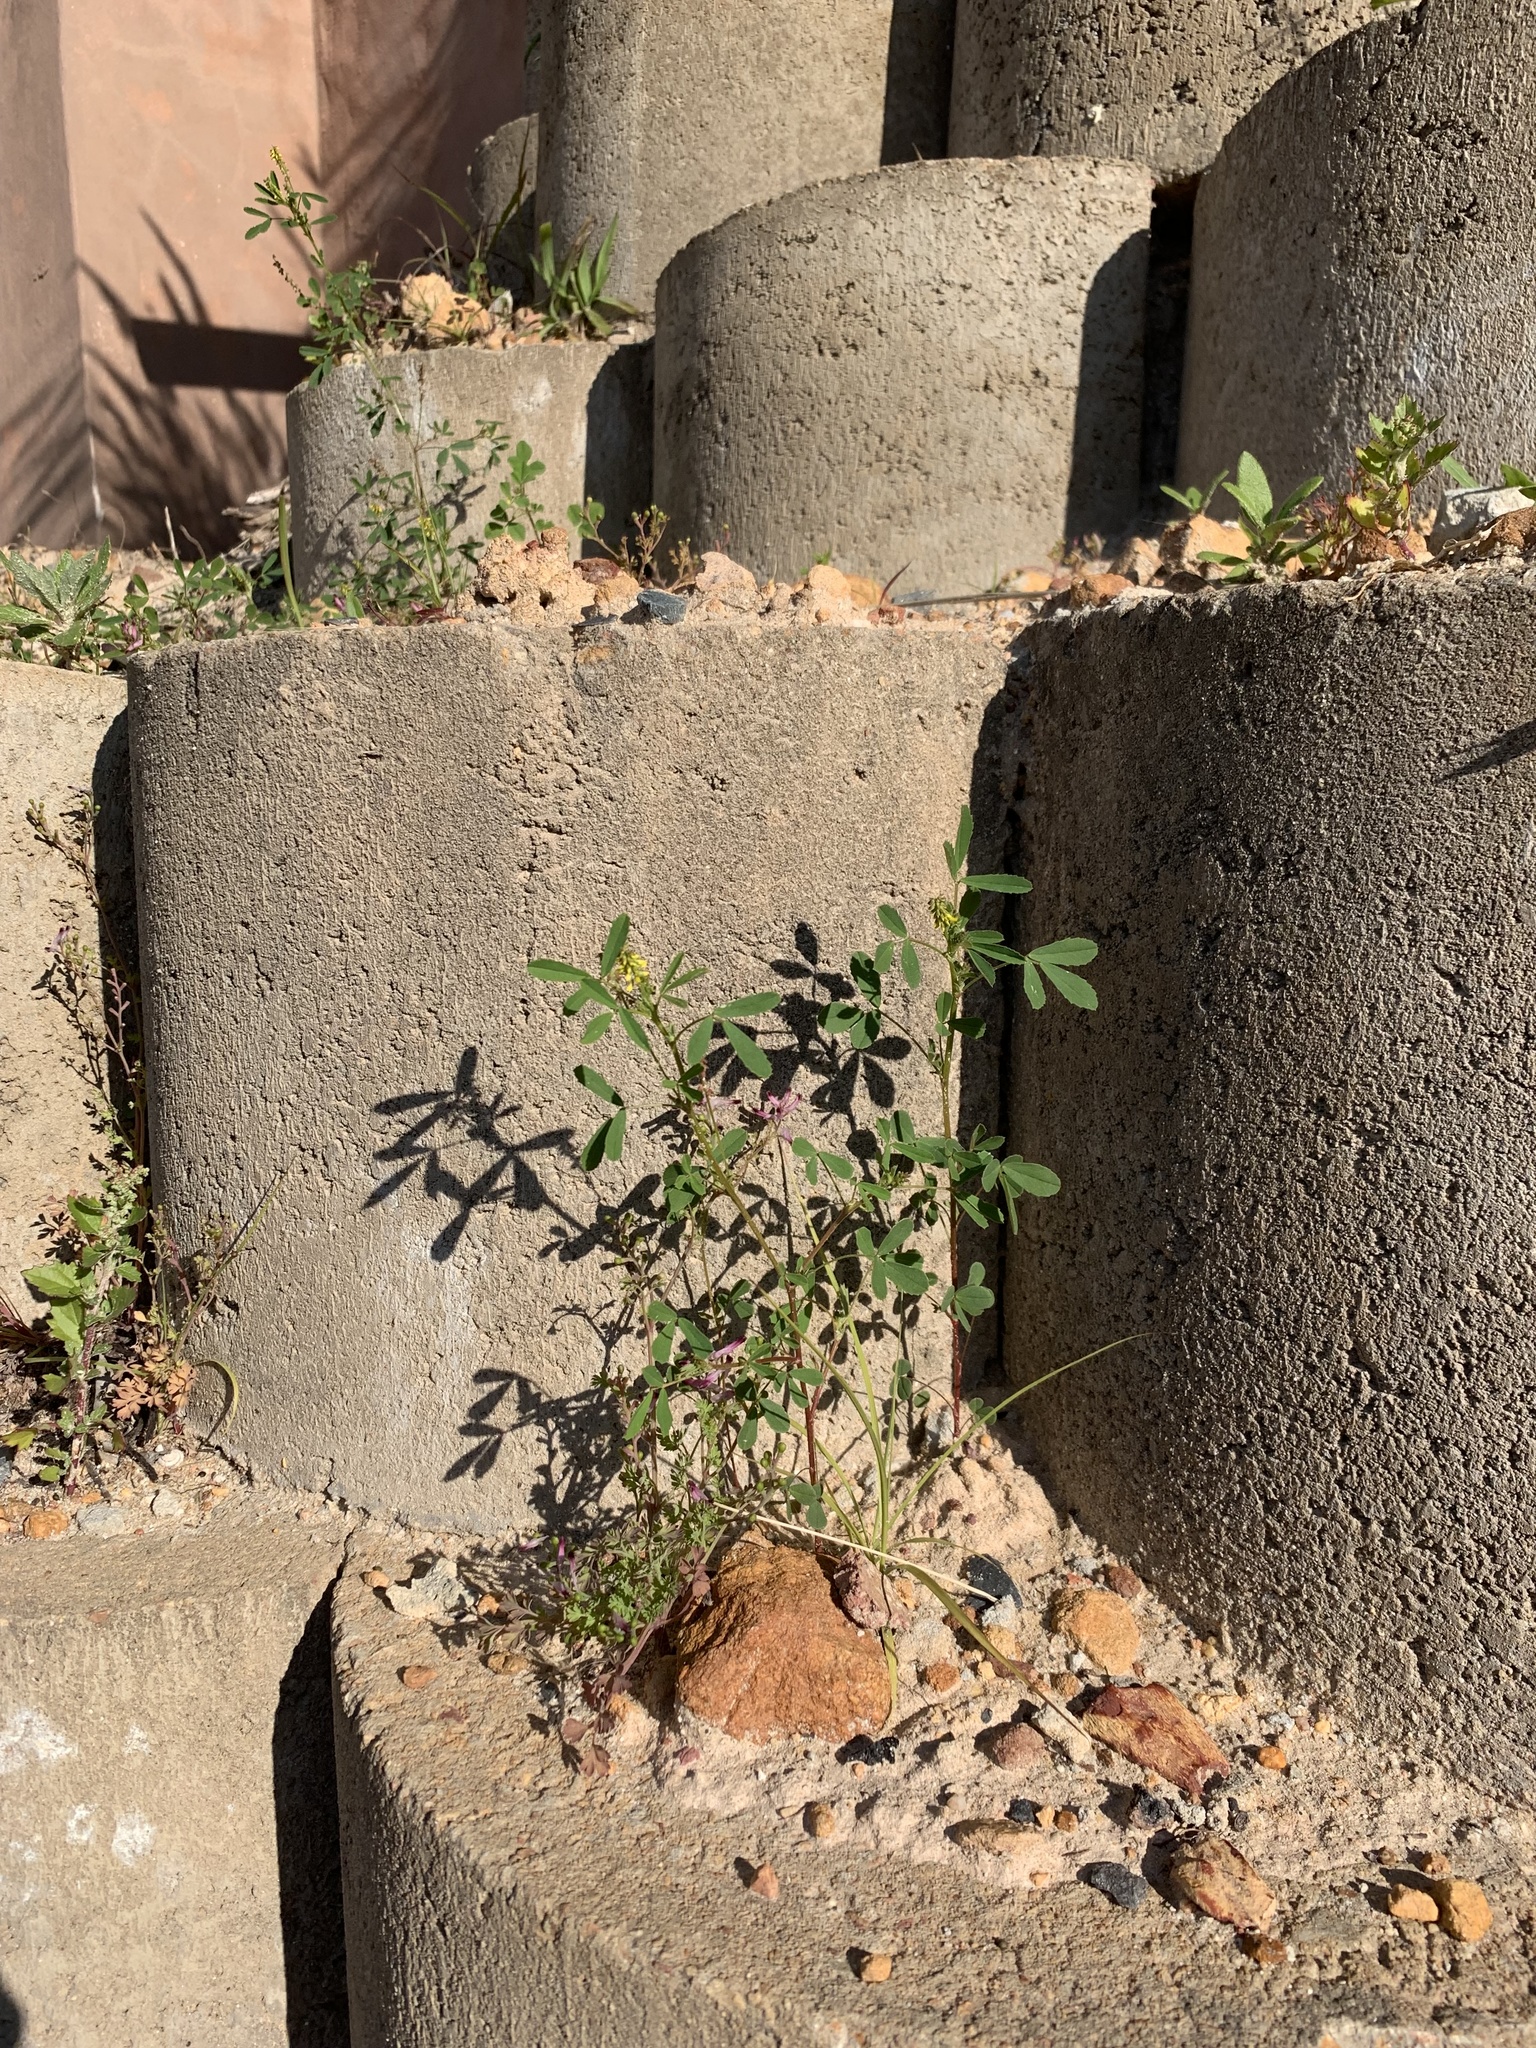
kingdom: Plantae
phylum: Tracheophyta
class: Magnoliopsida
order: Fabales
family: Fabaceae
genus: Melilotus
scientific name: Melilotus indicus
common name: Small melilot
